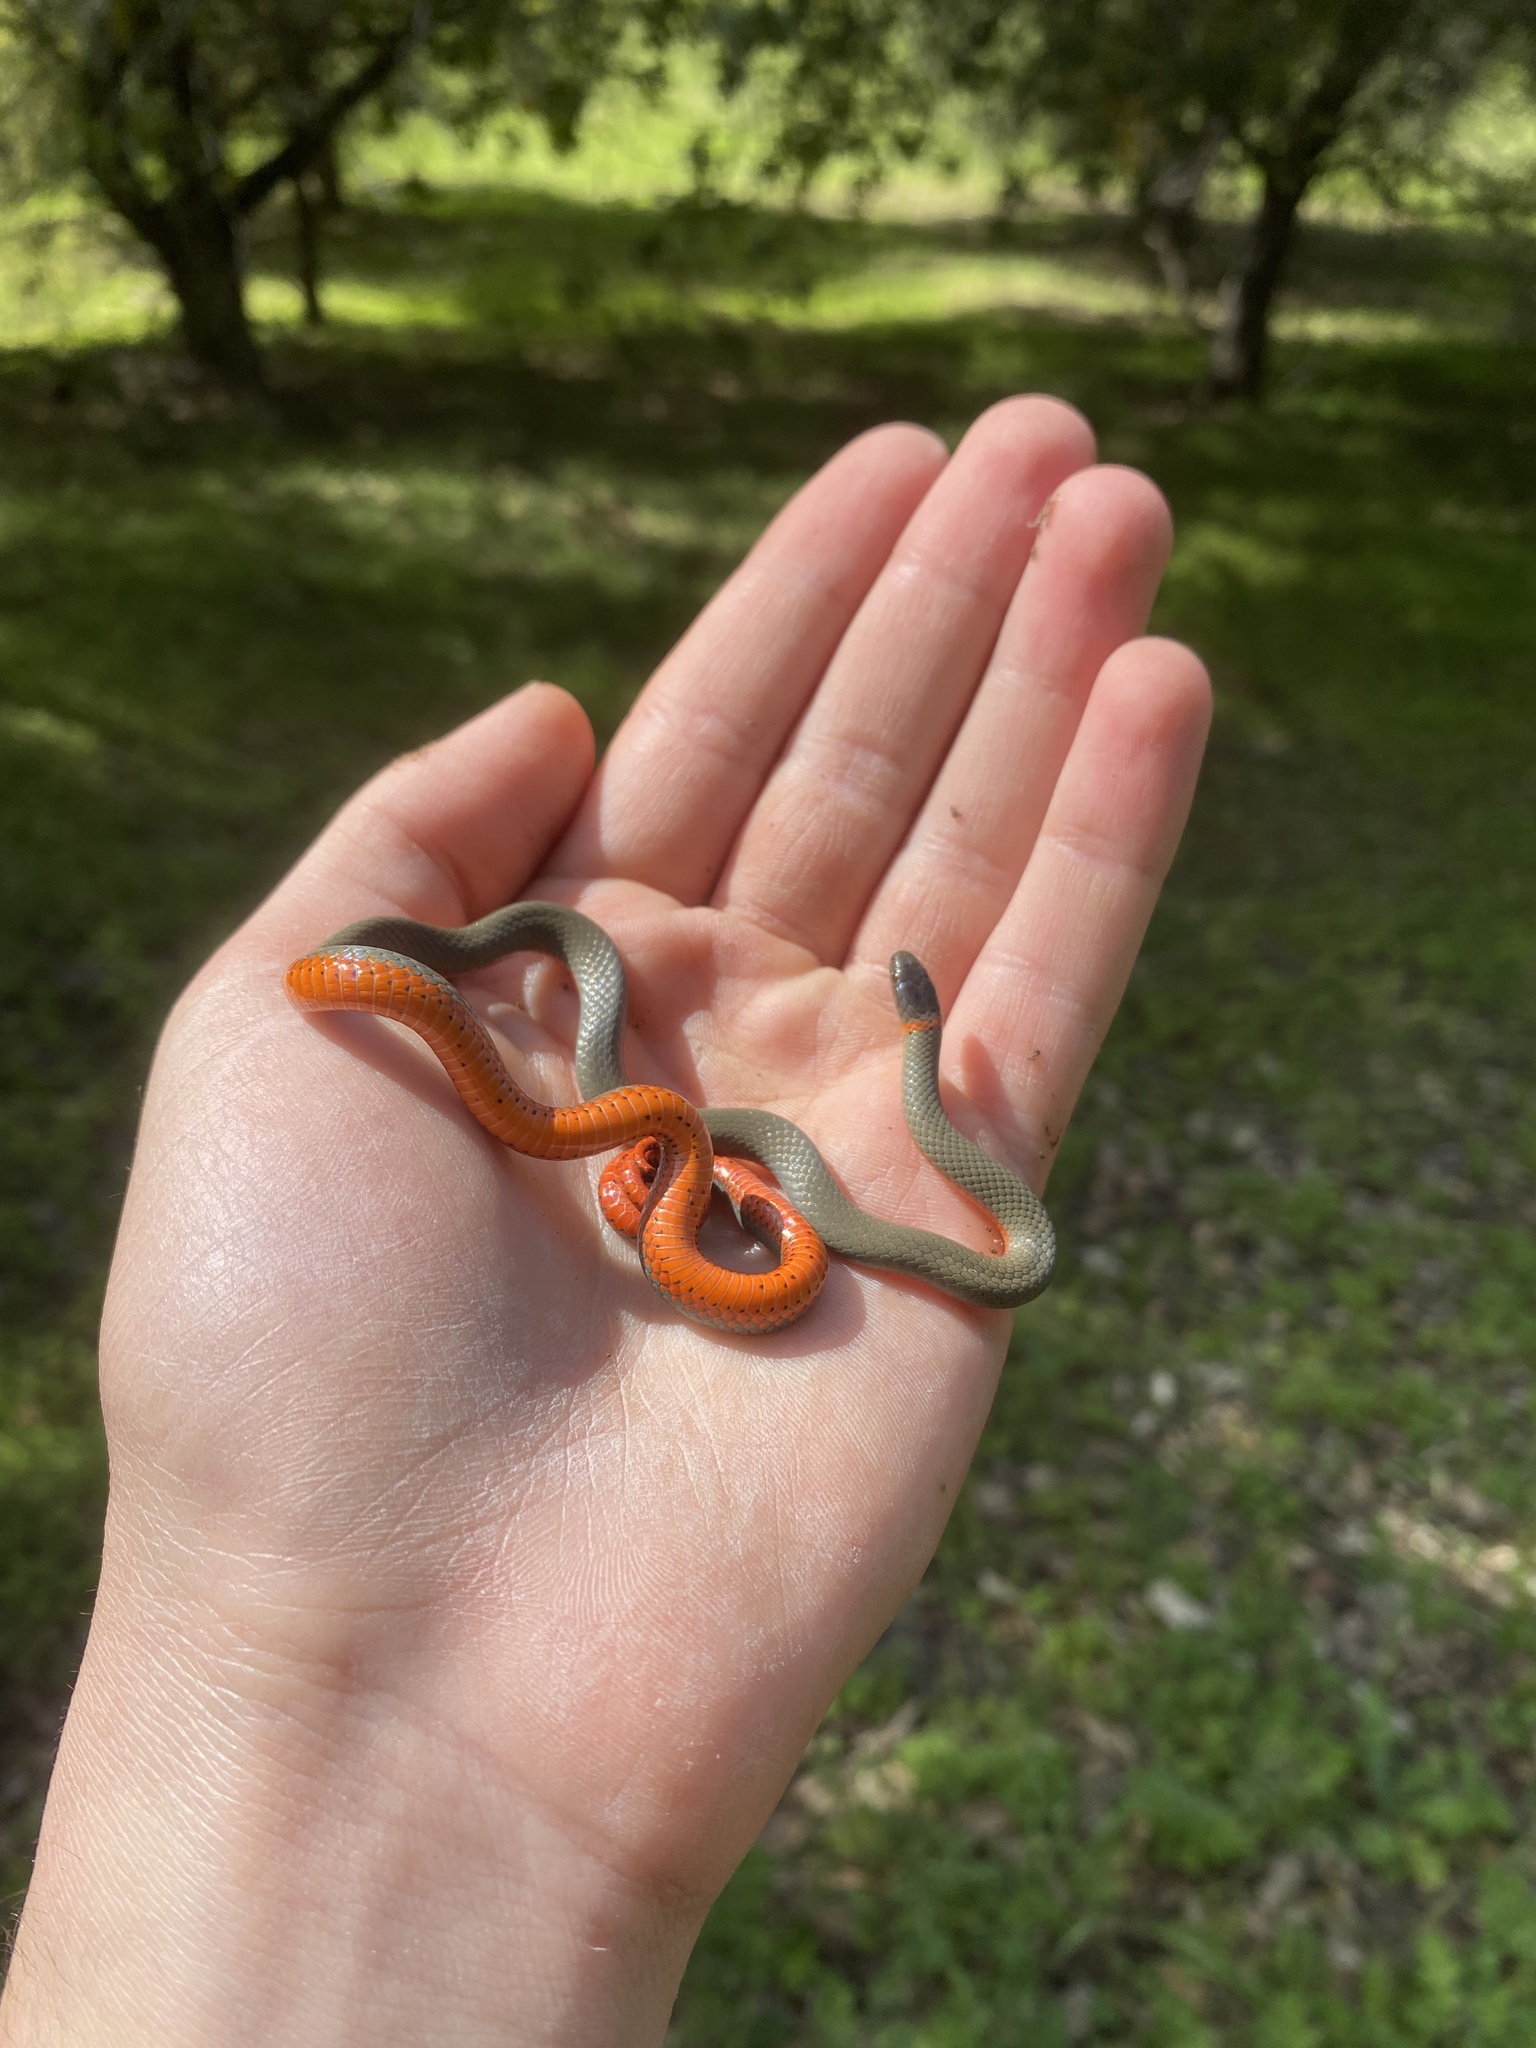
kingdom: Animalia
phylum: Chordata
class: Squamata
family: Colubridae
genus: Diadophis
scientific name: Diadophis punctatus
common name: Ringneck snake
